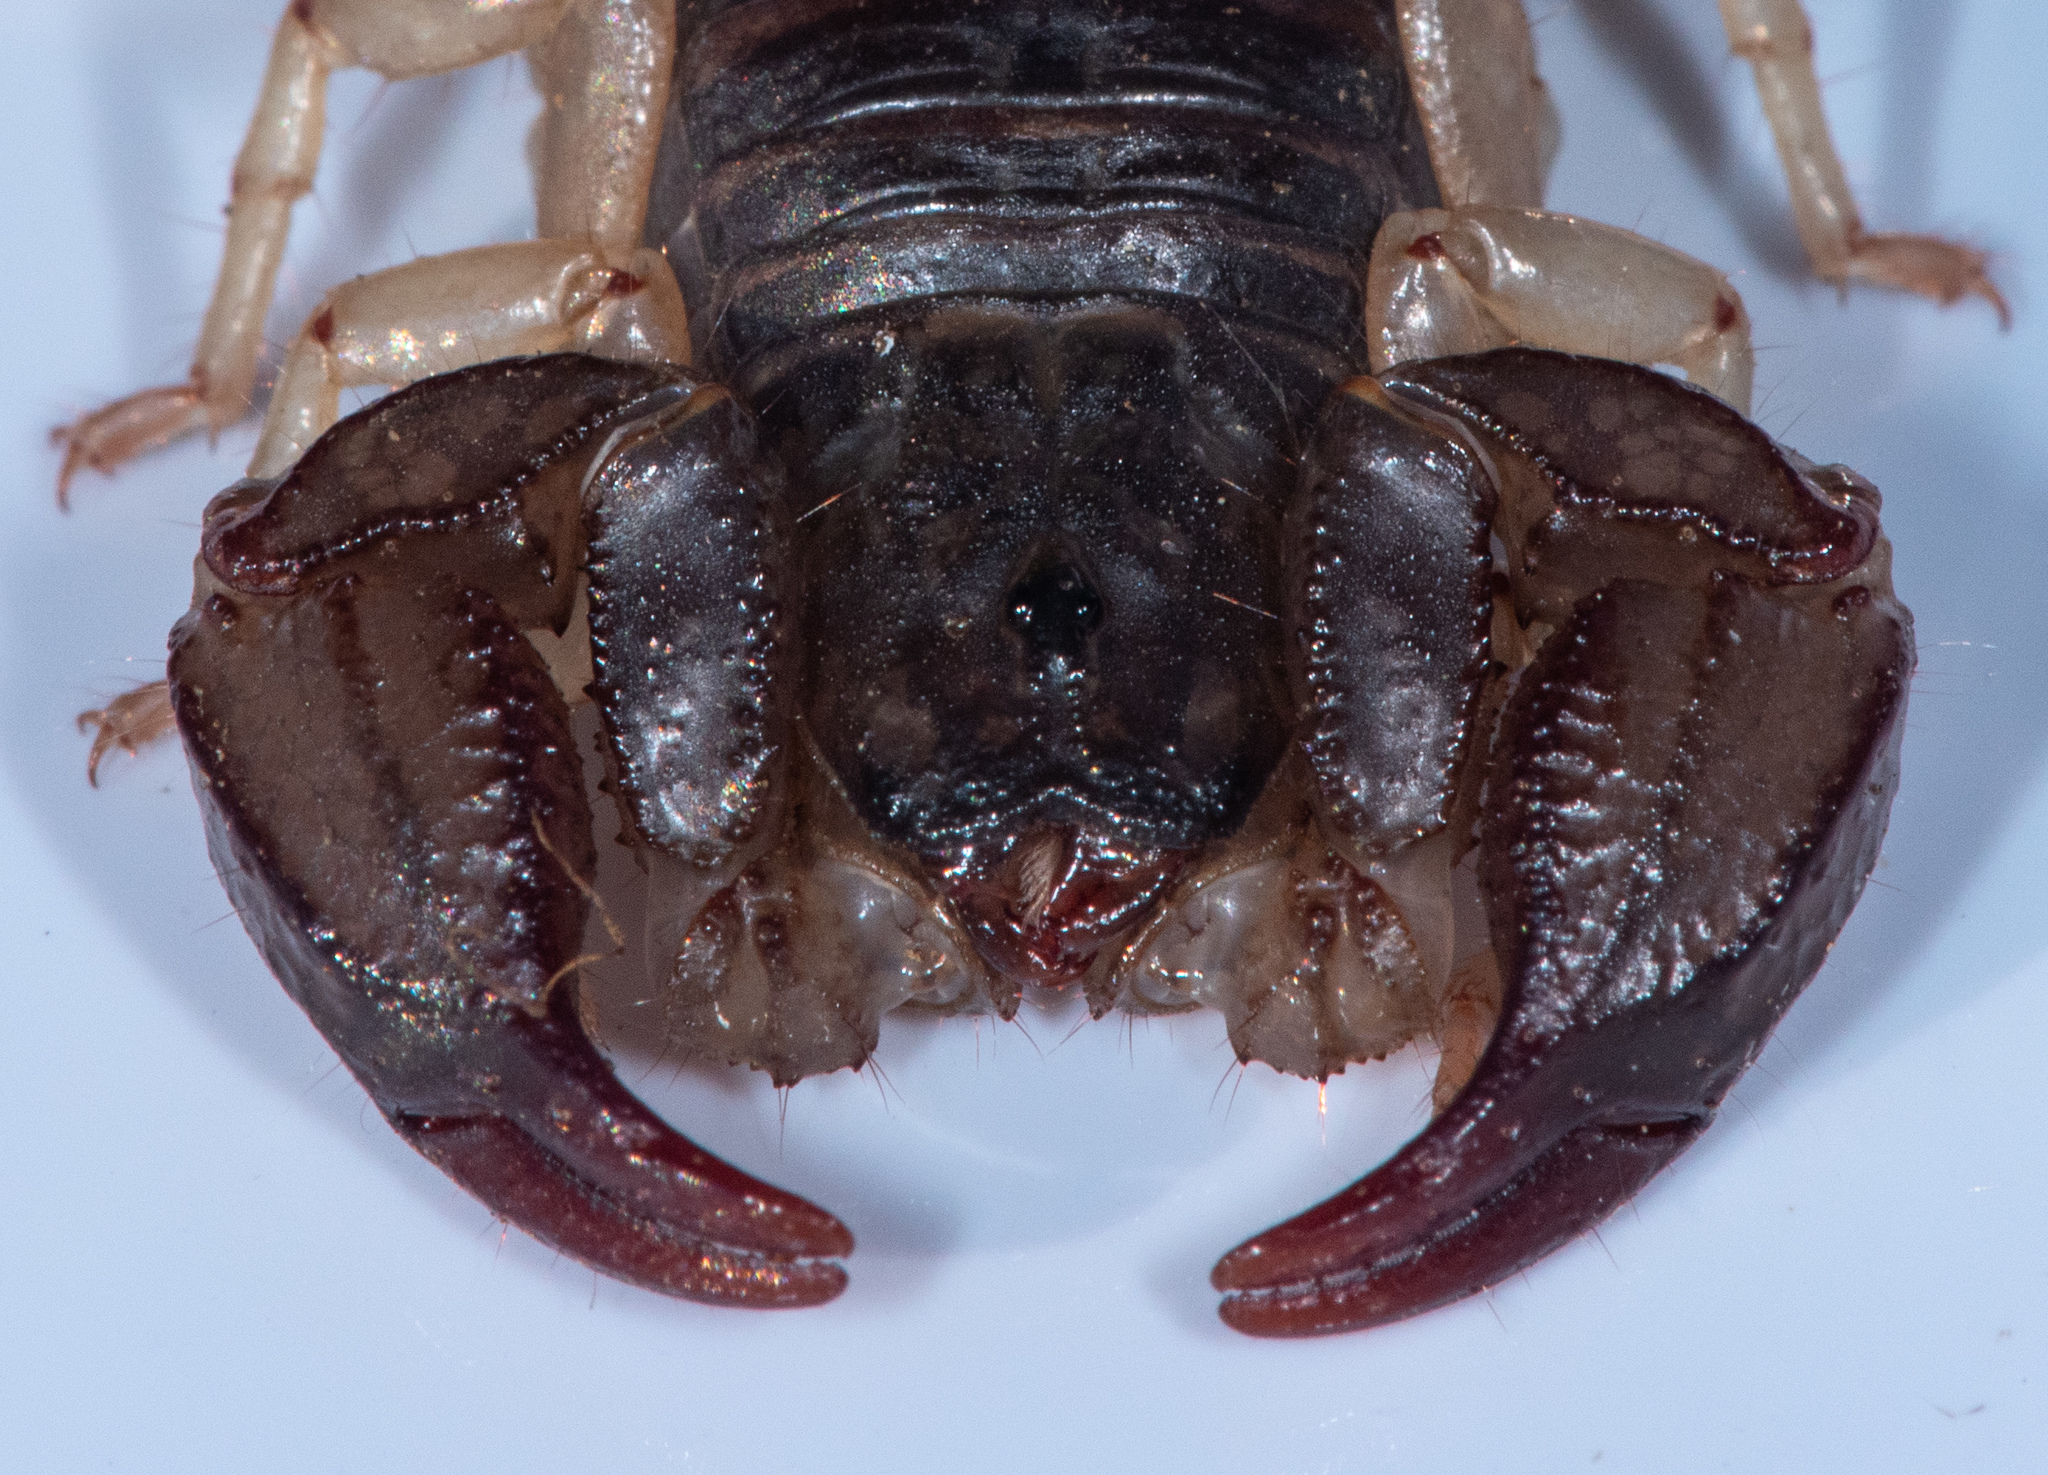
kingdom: Animalia
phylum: Arthropoda
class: Arachnida
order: Scorpiones
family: Chactidae
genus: Uroctonus
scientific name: Uroctonus mordax
